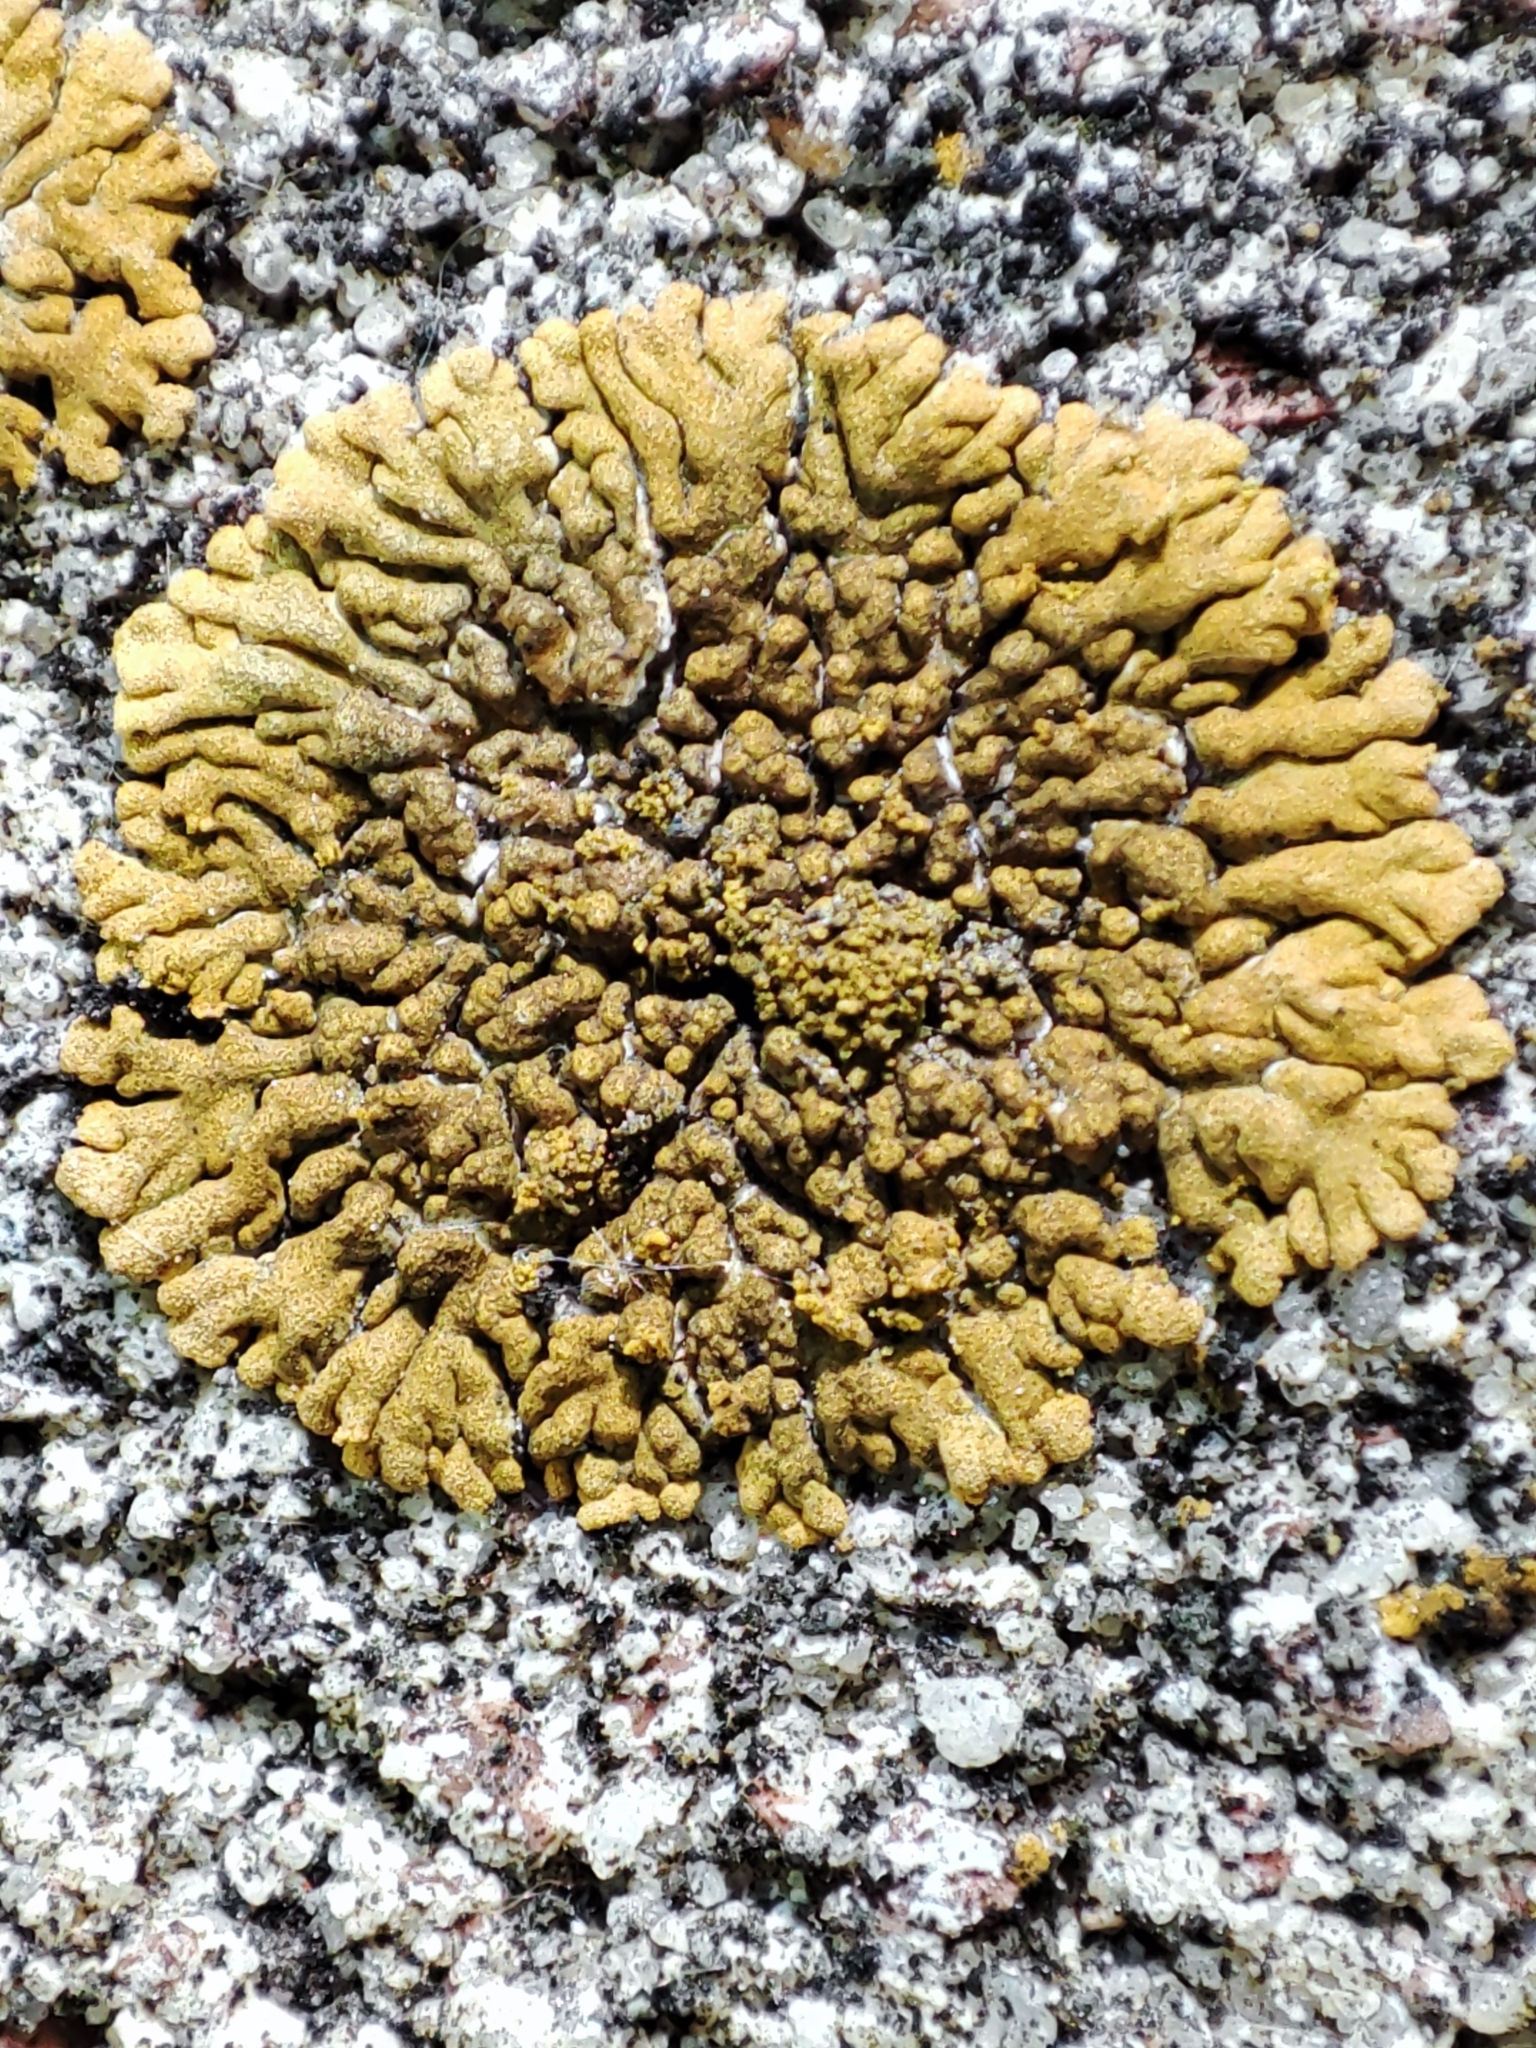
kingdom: Fungi
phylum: Ascomycota
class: Lecanoromycetes
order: Teloschistales
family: Teloschistaceae
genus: Calogaya
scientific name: Calogaya decipiens
